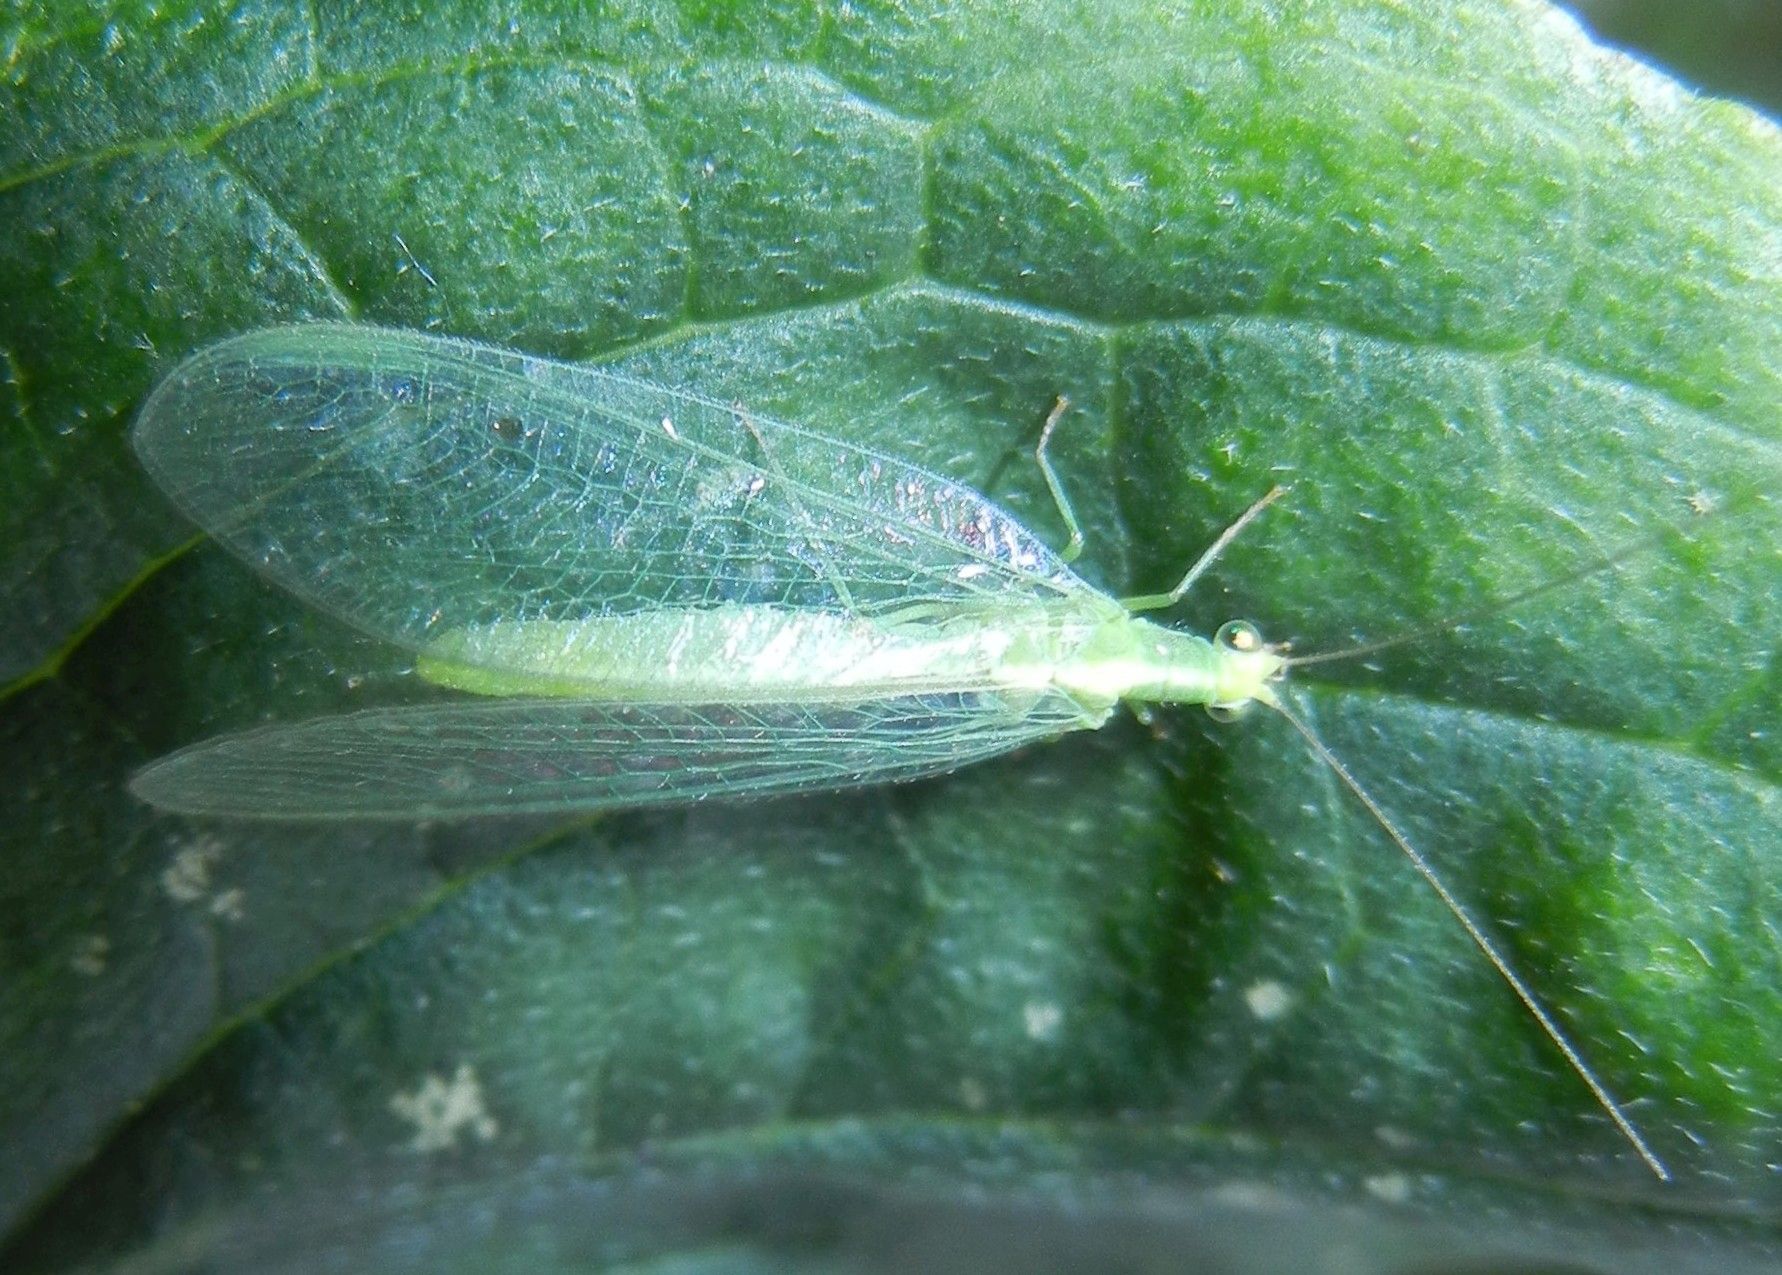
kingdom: Animalia
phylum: Arthropoda
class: Insecta
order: Neuroptera
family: Chrysopidae
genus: Chrysoperla
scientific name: Chrysoperla
